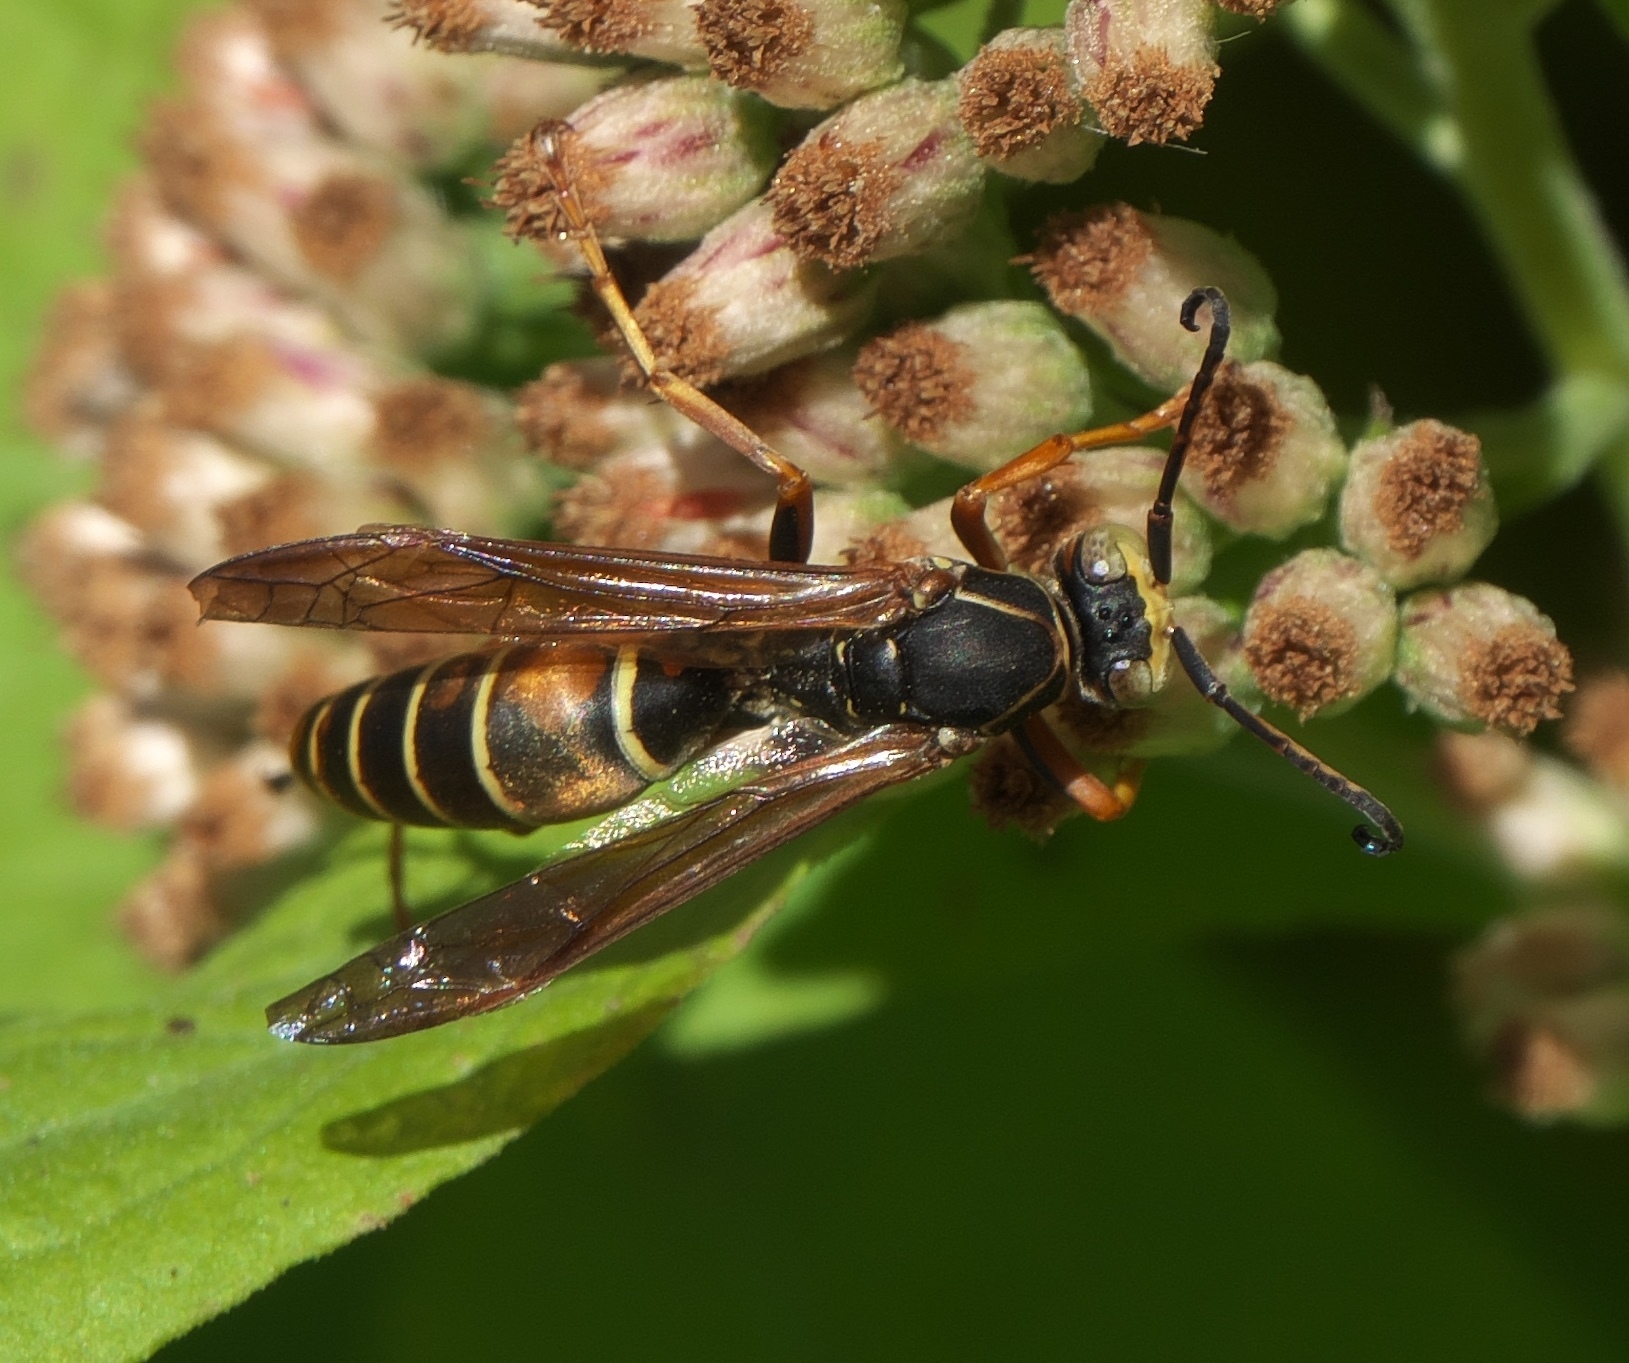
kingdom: Animalia
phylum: Arthropoda
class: Insecta
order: Hymenoptera
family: Eumenidae
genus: Polistes
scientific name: Polistes fuscatus
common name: Dark paper wasp
